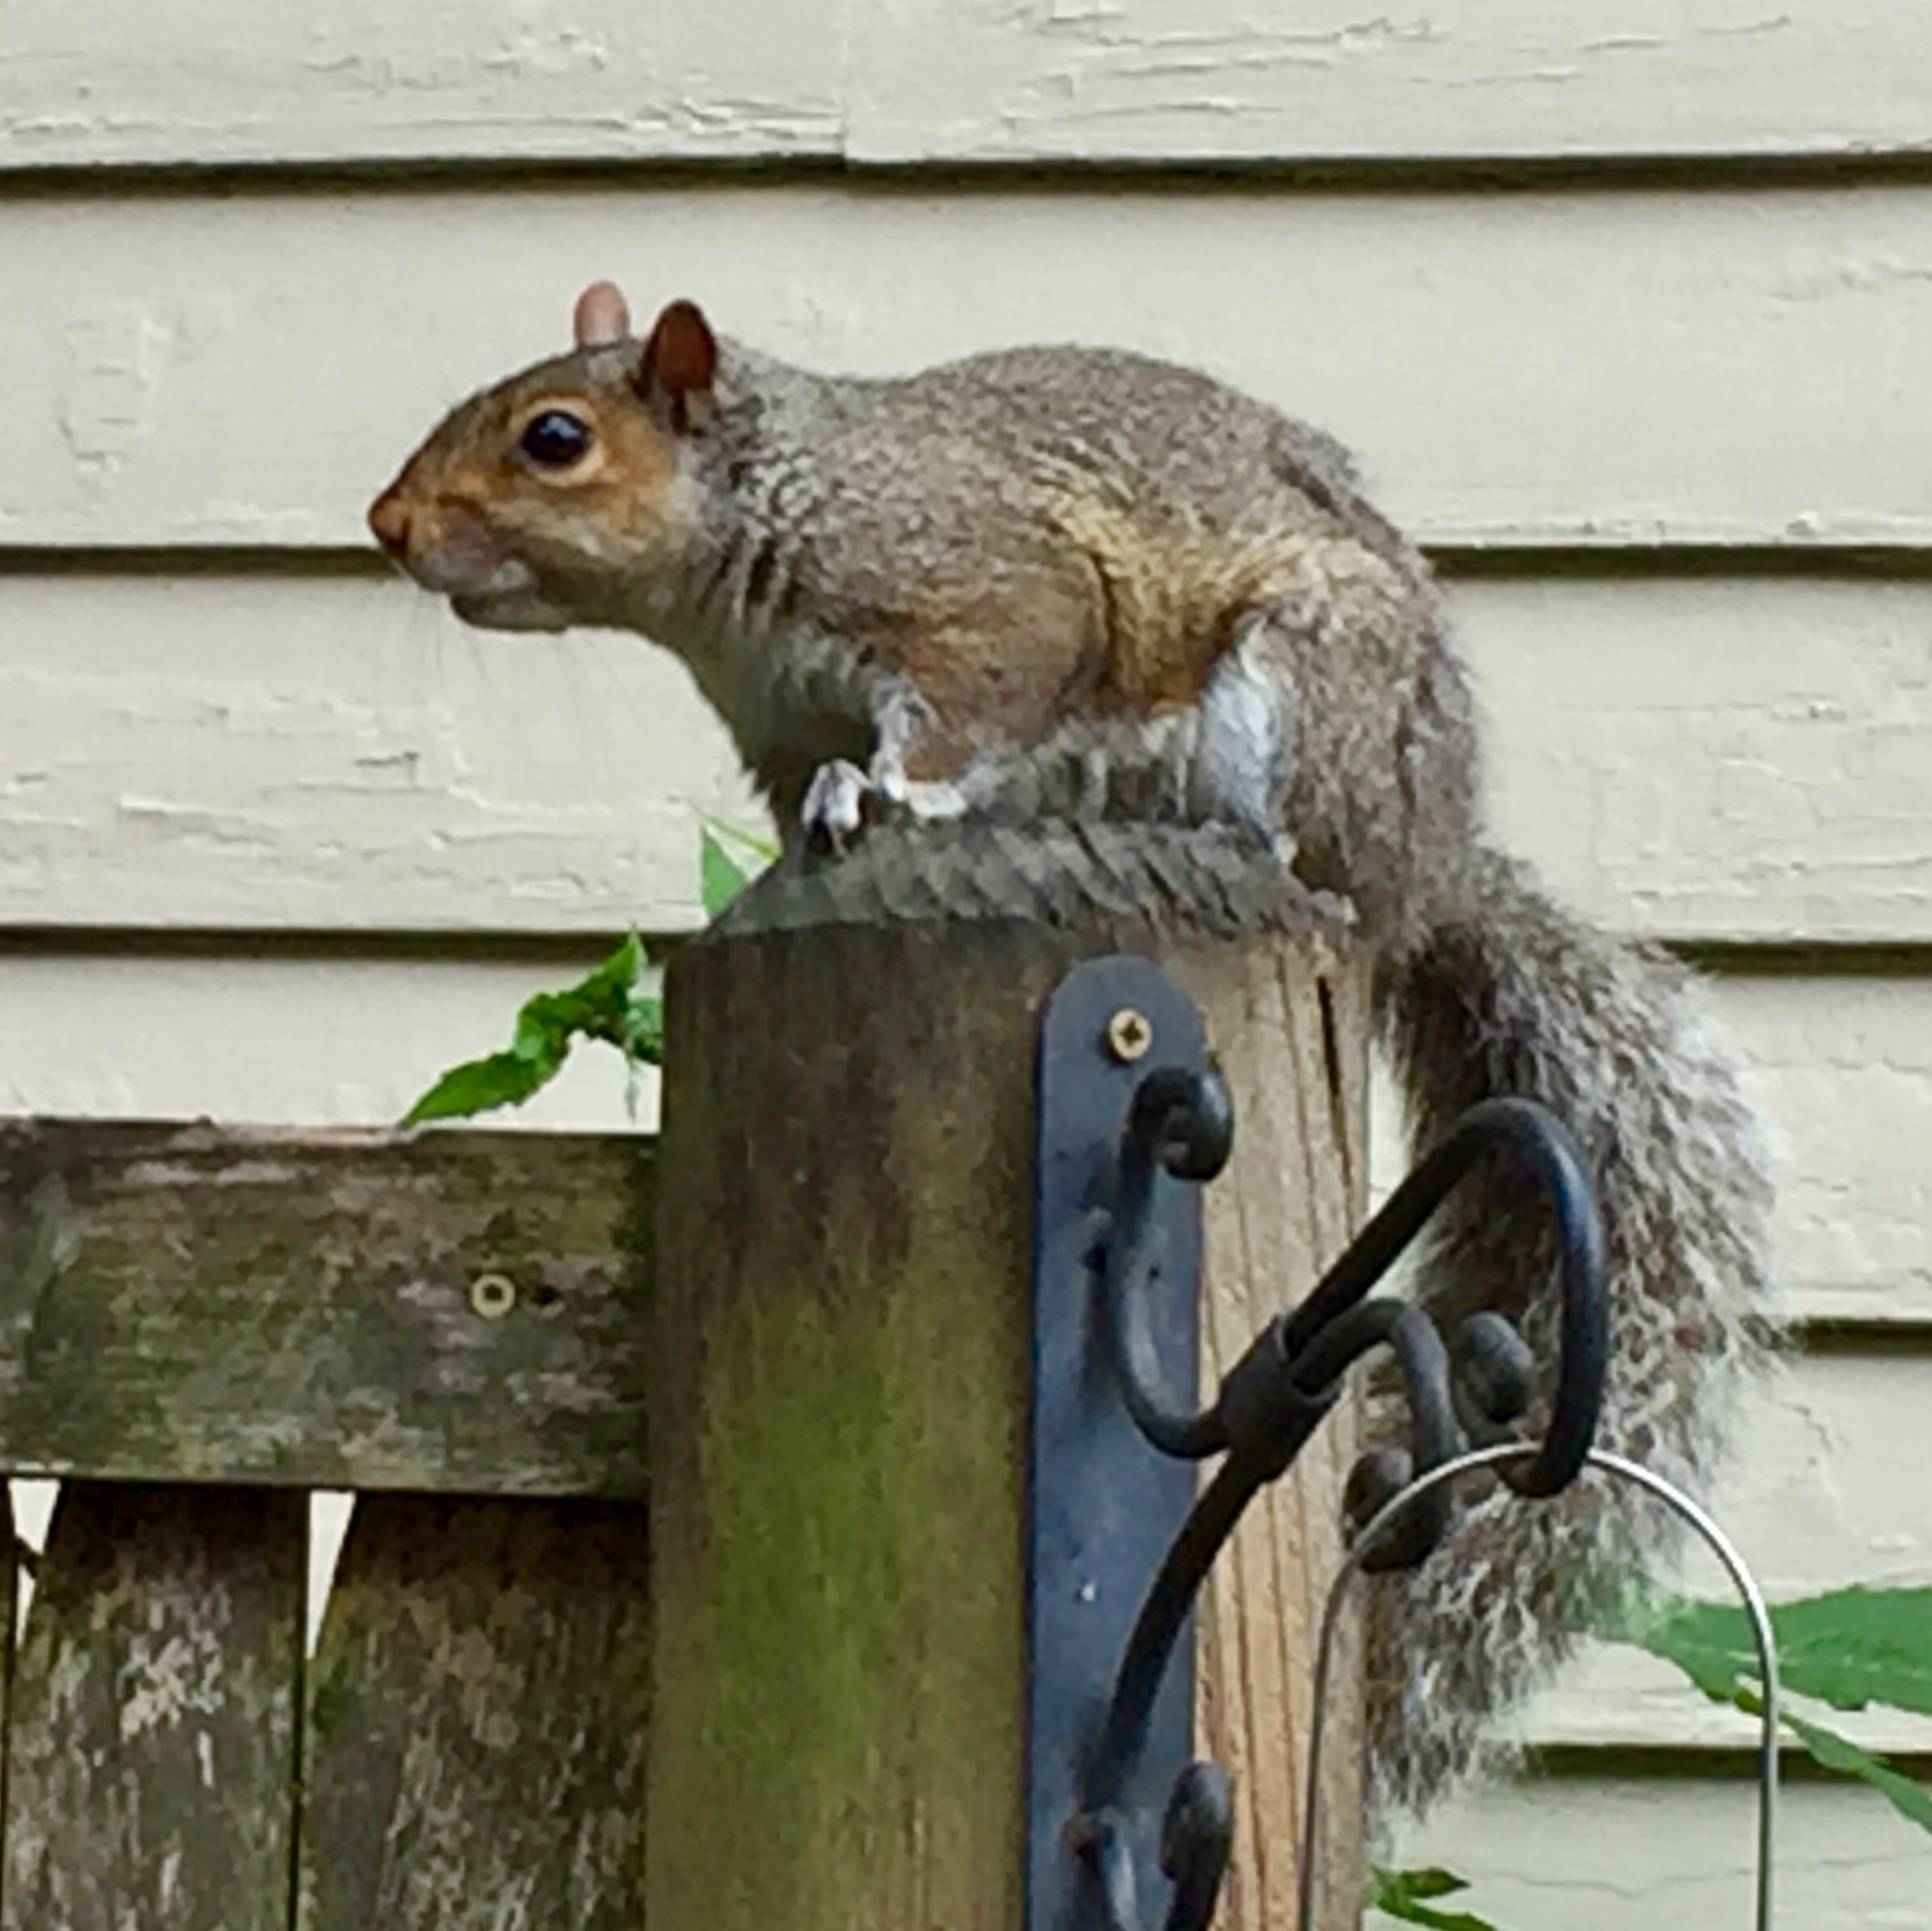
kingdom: Animalia
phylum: Chordata
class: Mammalia
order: Rodentia
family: Sciuridae
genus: Sciurus
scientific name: Sciurus carolinensis
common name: Eastern gray squirrel
